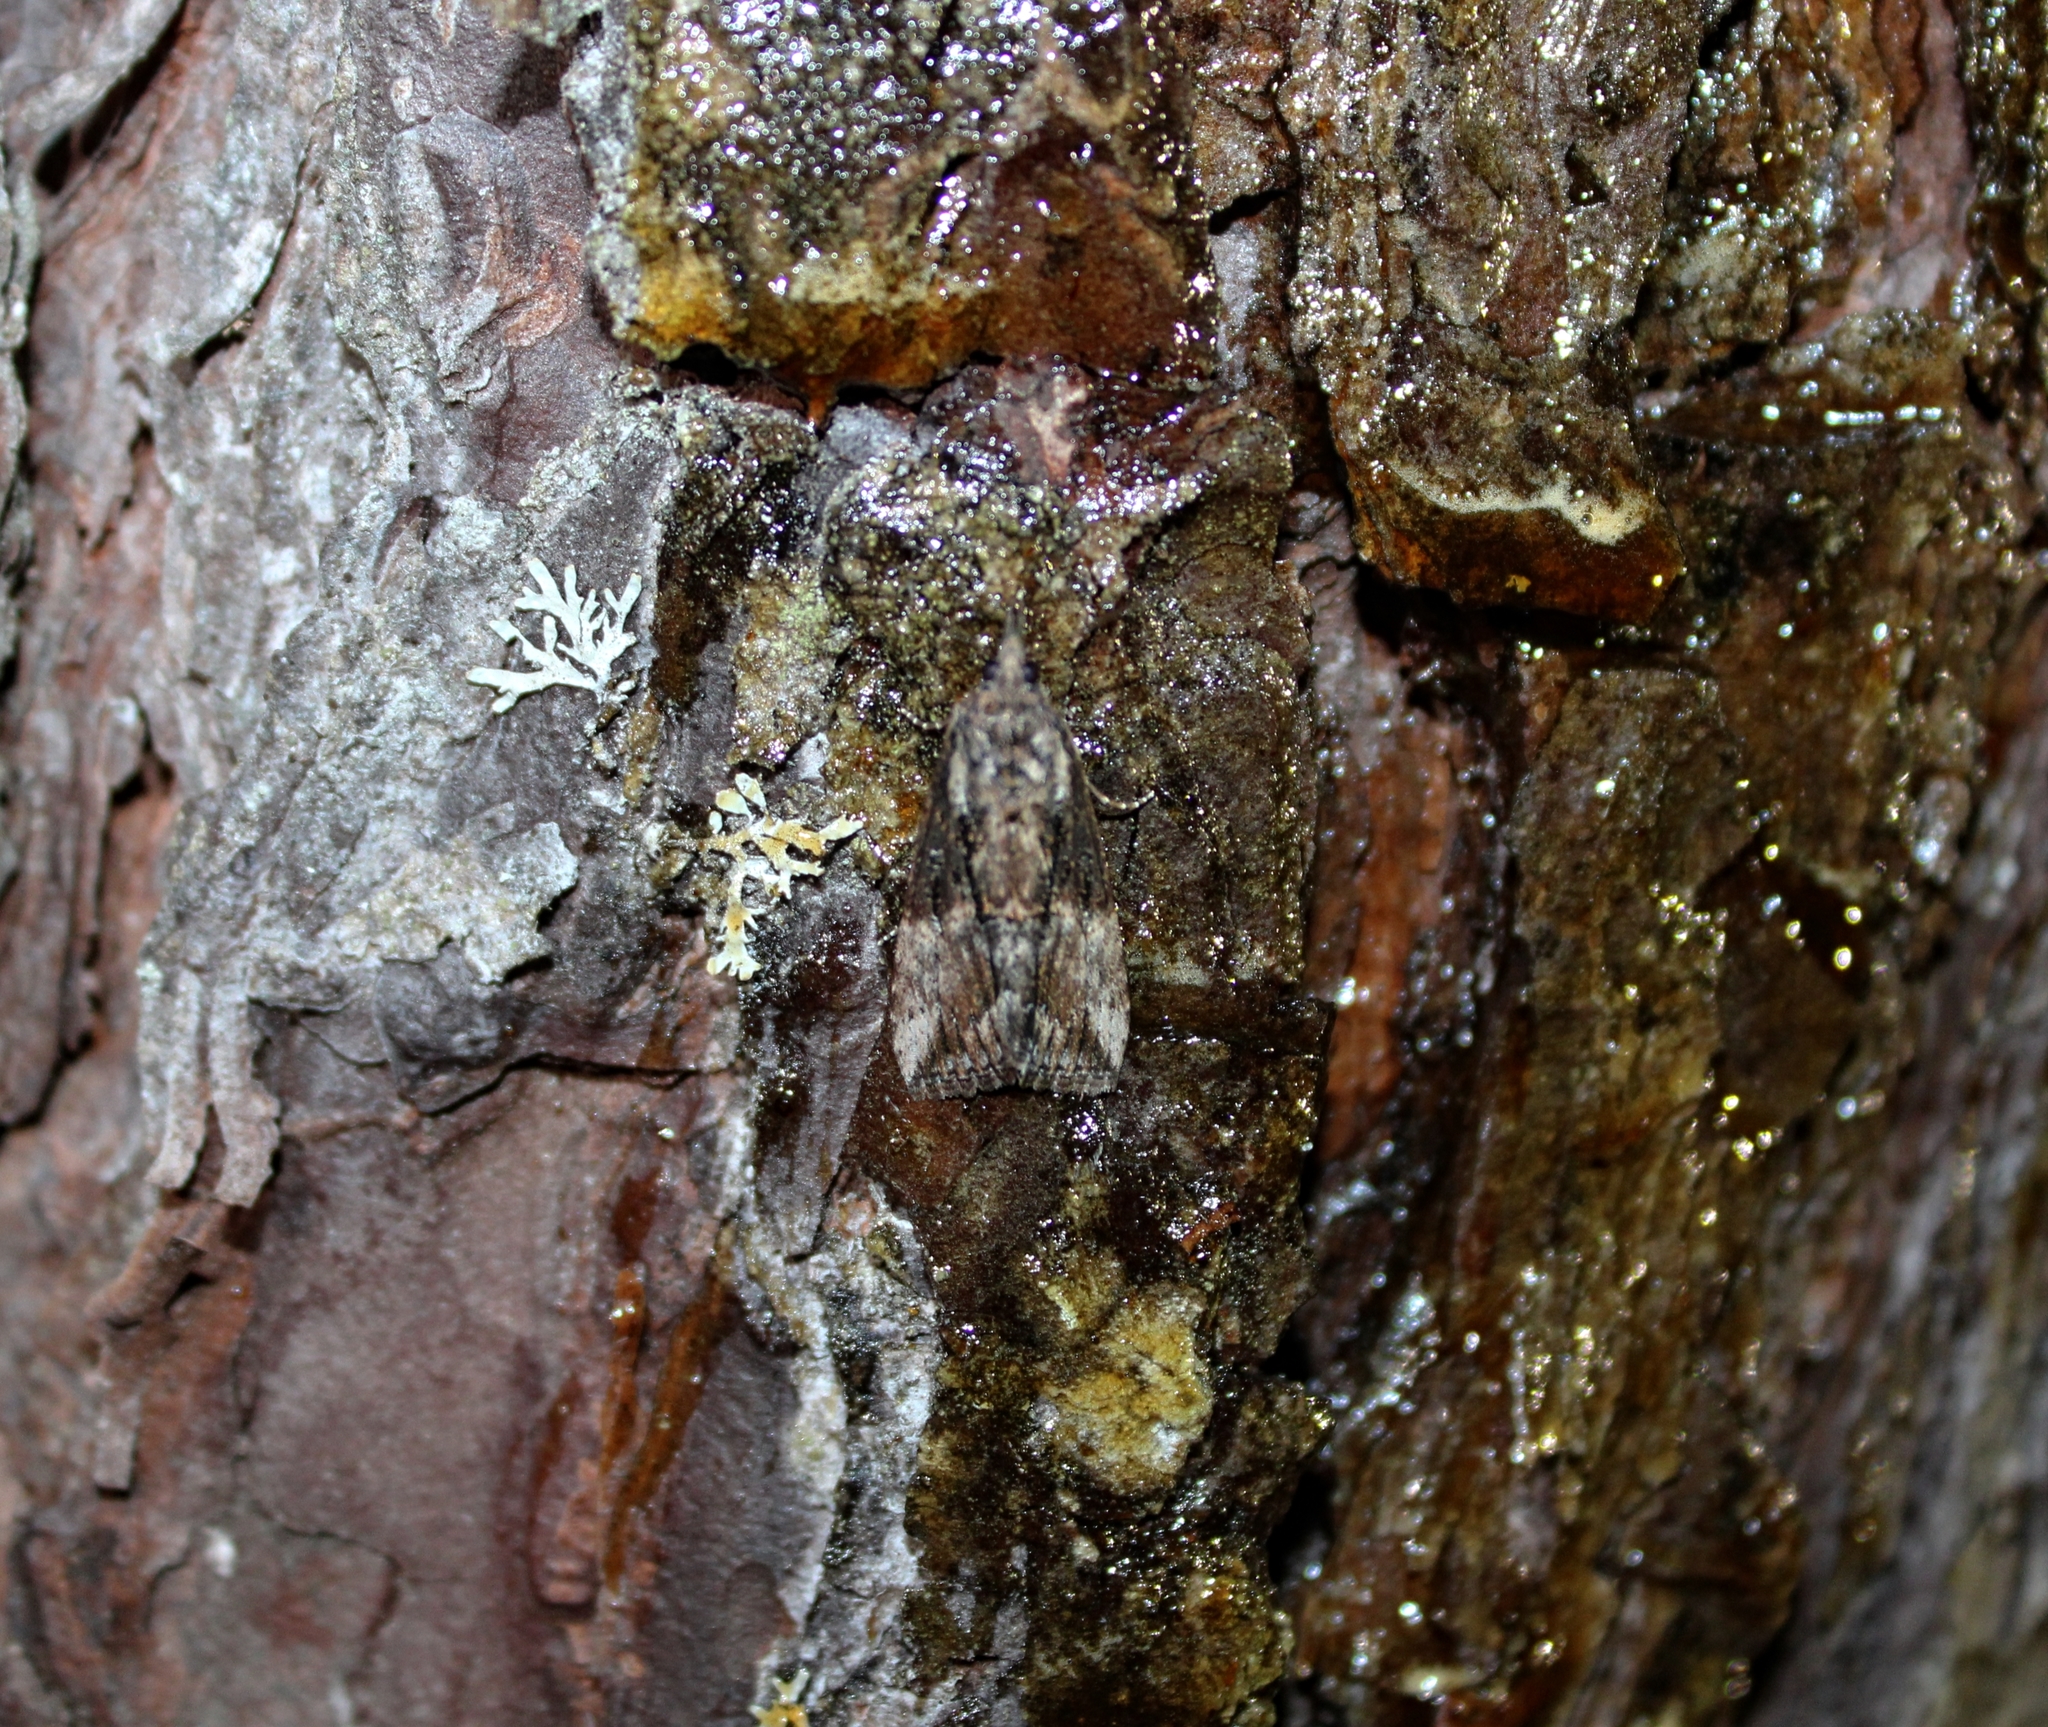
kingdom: Animalia
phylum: Arthropoda
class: Insecta
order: Lepidoptera
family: Erebidae
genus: Hypena
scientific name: Hypena scabra
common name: Green cloverworm
